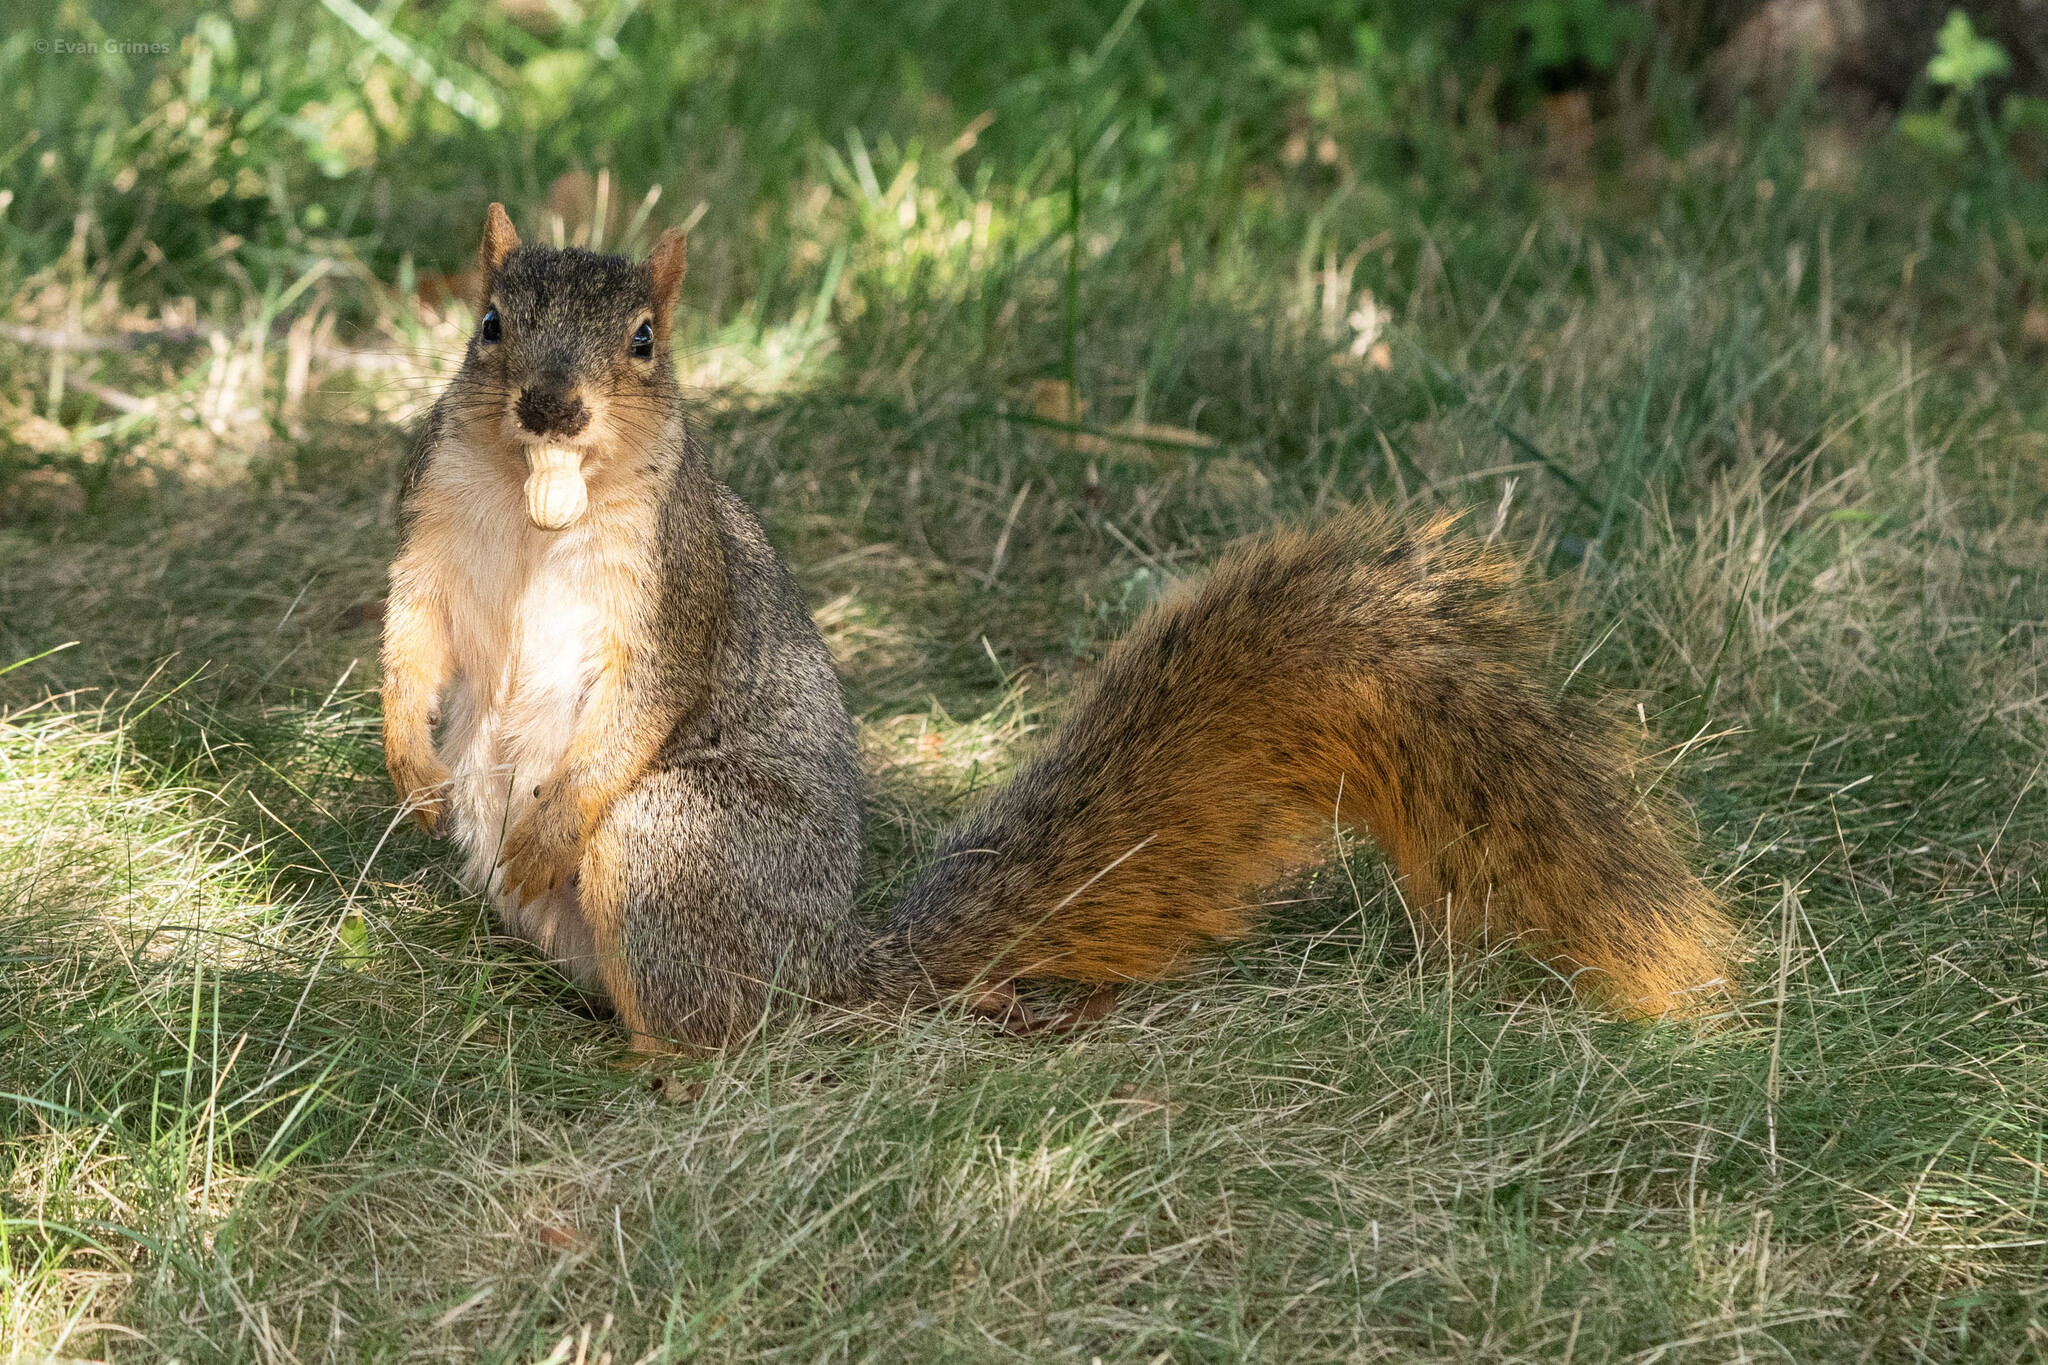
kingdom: Animalia
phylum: Chordata
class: Mammalia
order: Rodentia
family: Sciuridae
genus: Sciurus
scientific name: Sciurus niger
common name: Fox squirrel
